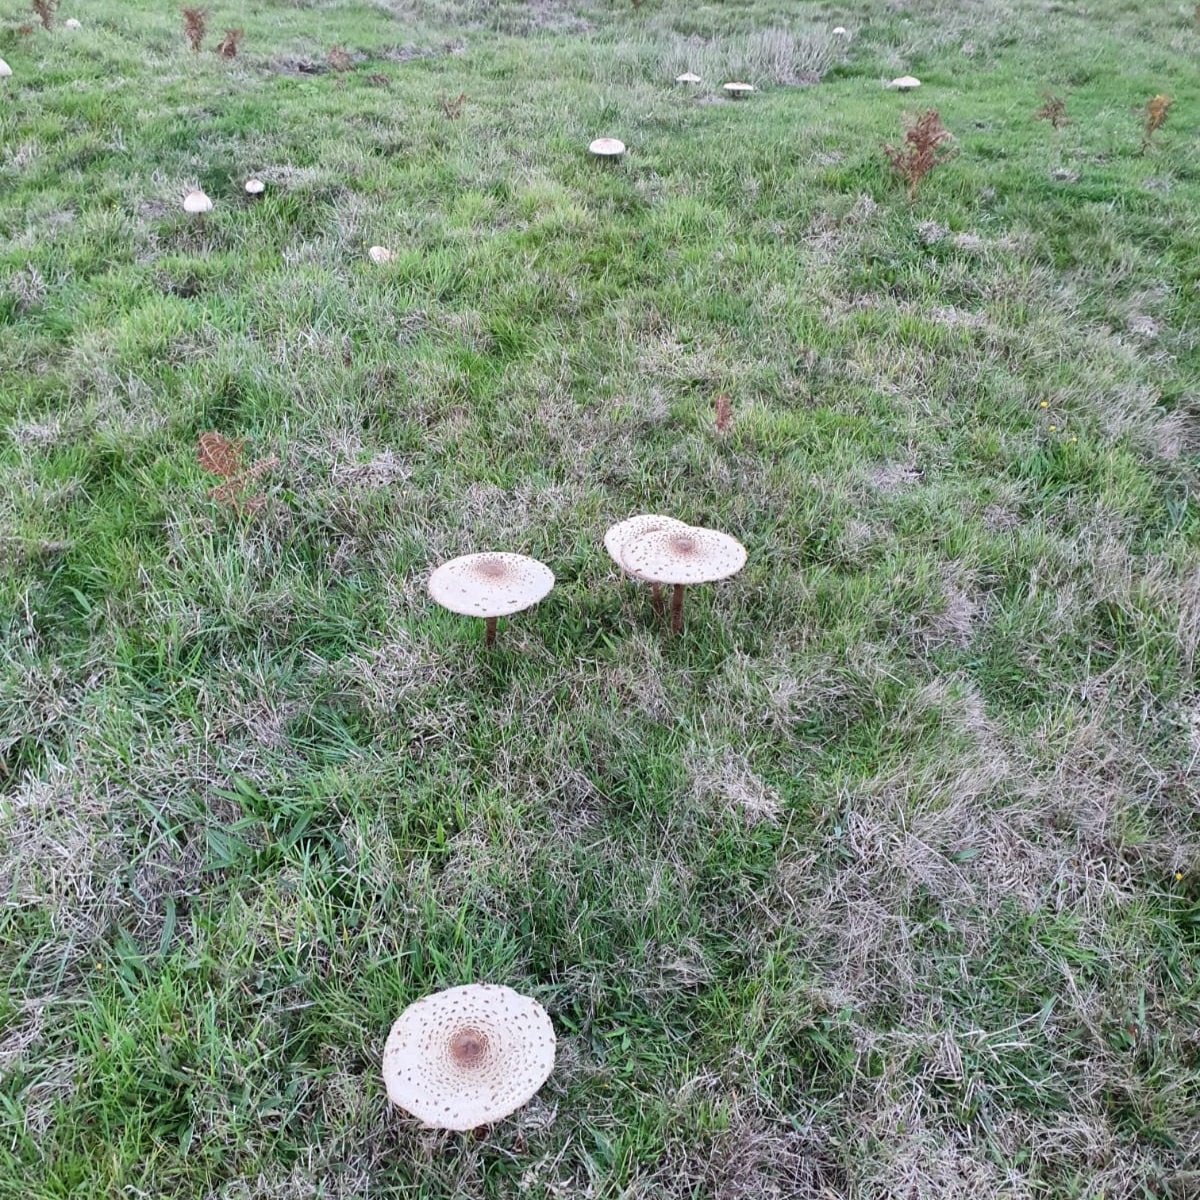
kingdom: Fungi
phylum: Basidiomycota
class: Agaricomycetes
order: Agaricales
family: Agaricaceae
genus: Macrolepiota
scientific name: Macrolepiota procera
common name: Parasol
